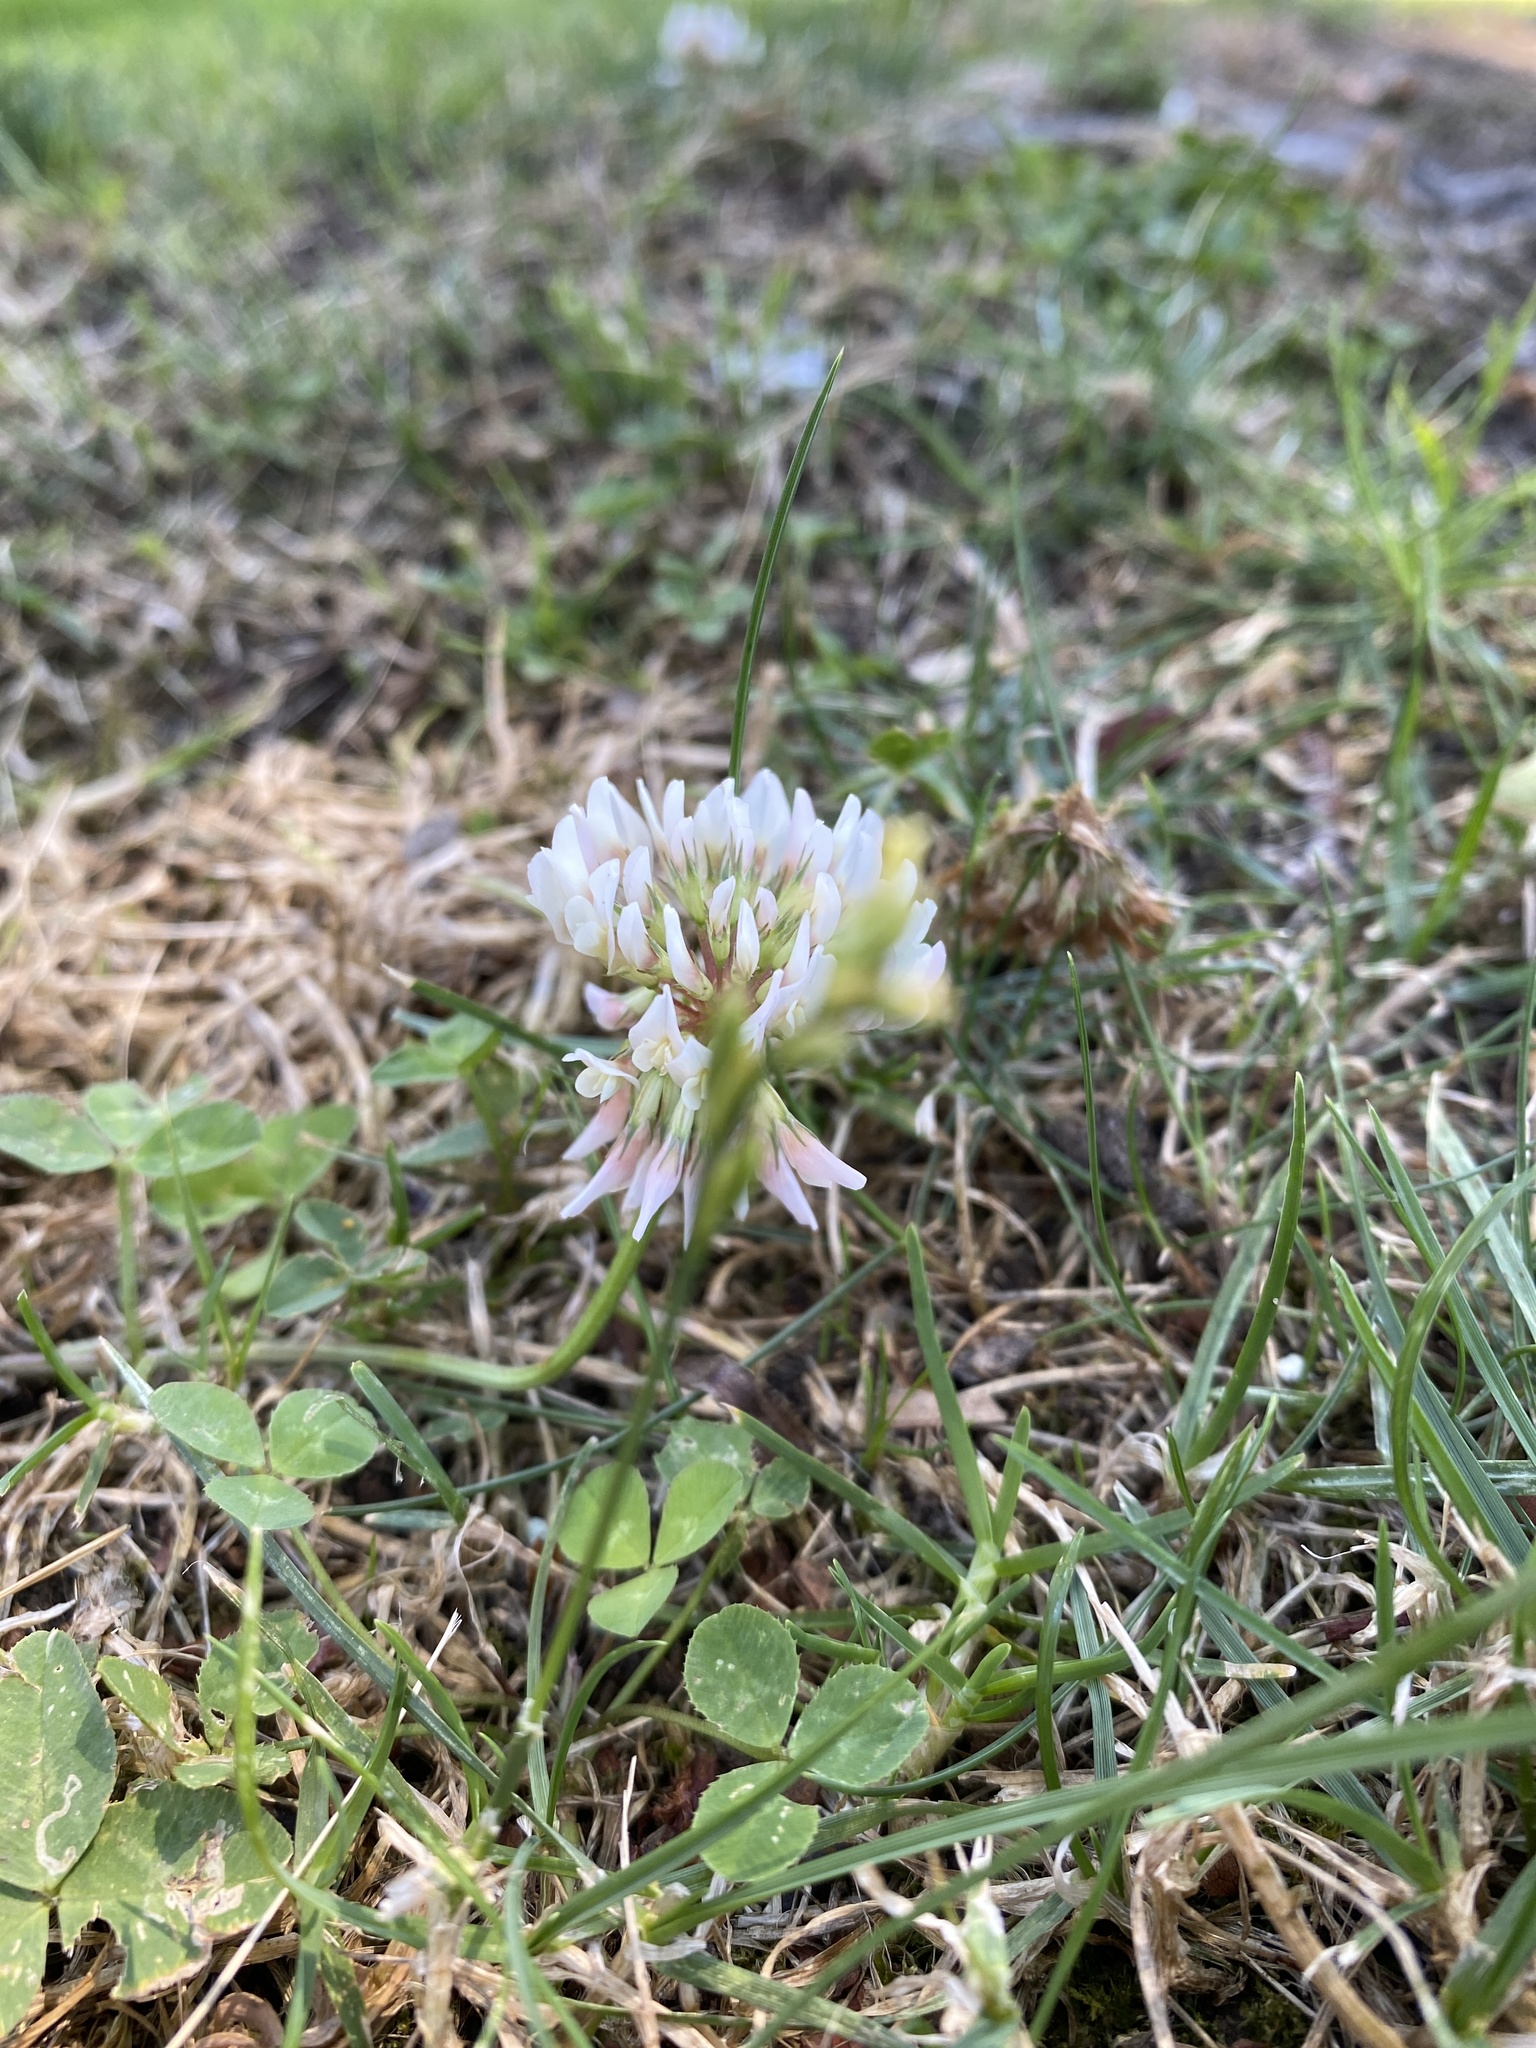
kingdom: Plantae
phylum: Tracheophyta
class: Magnoliopsida
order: Fabales
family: Fabaceae
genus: Trifolium
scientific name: Trifolium repens
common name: White clover
